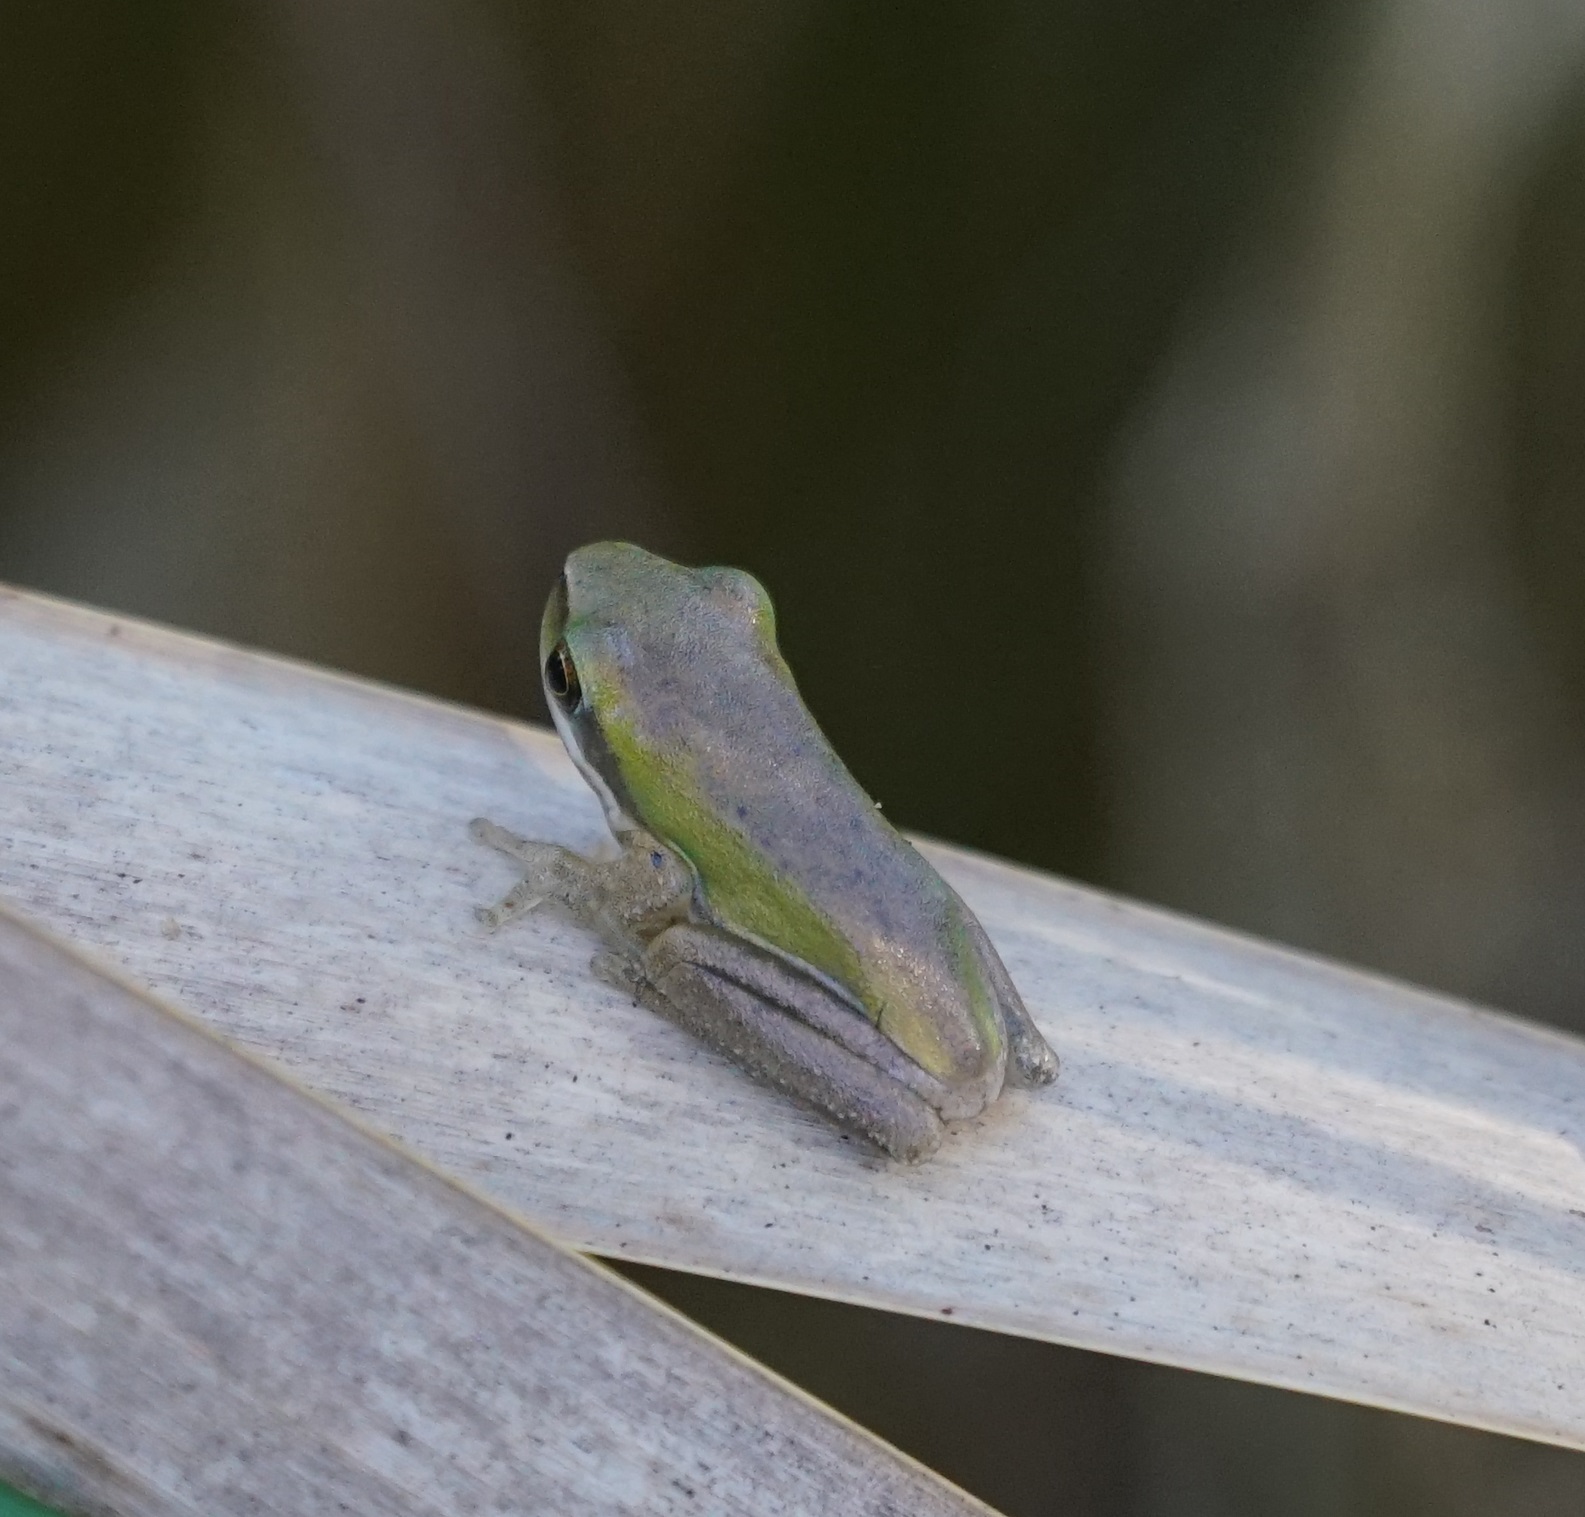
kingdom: Animalia
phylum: Chordata
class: Amphibia
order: Anura
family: Pelodryadidae
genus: Litoria
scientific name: Litoria fallax
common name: Eastern dwarf treefrog
